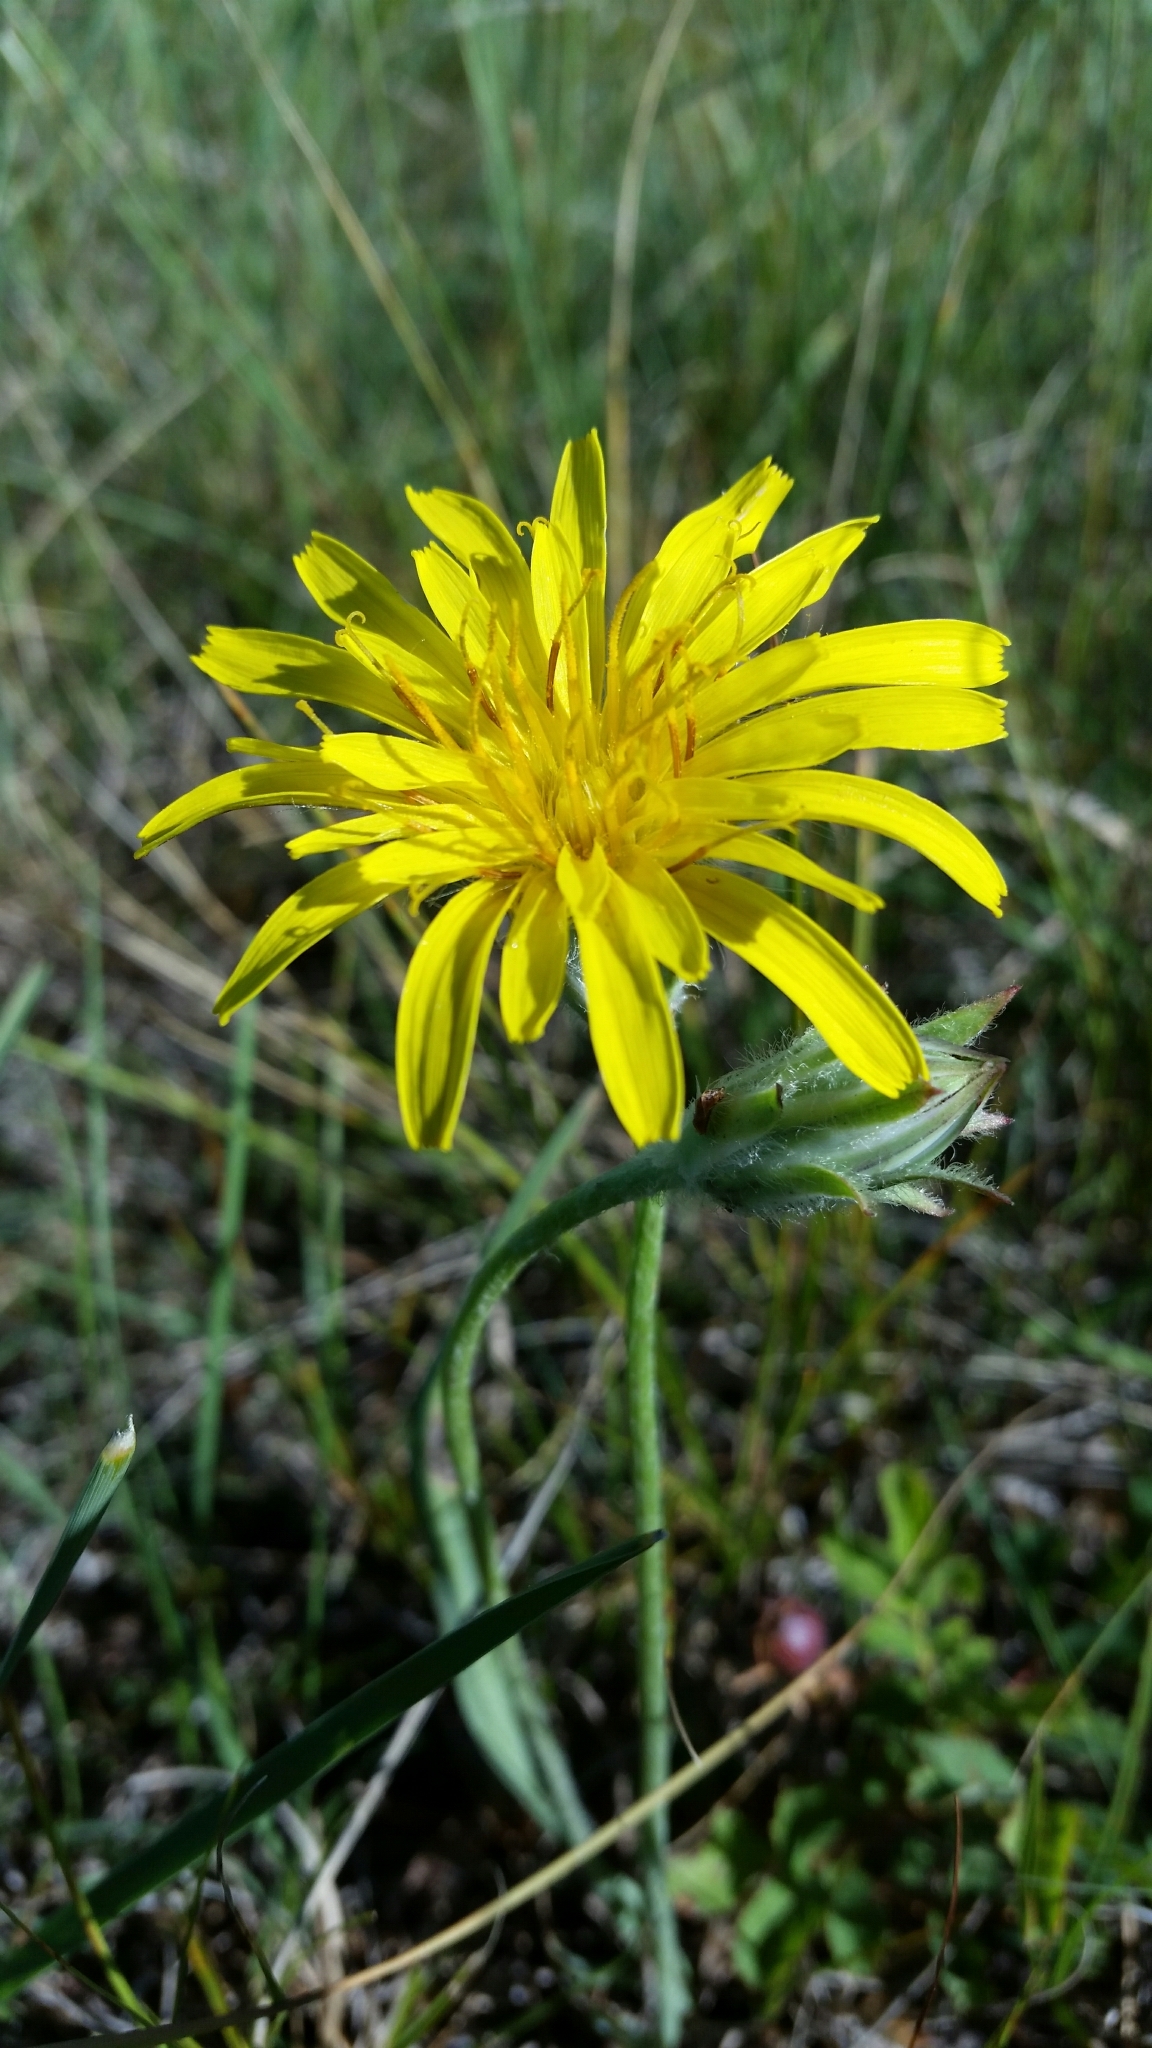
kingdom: Plantae
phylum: Tracheophyta
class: Magnoliopsida
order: Asterales
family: Asteraceae
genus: Agoseris
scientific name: Agoseris glauca
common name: Prairie agoseris
